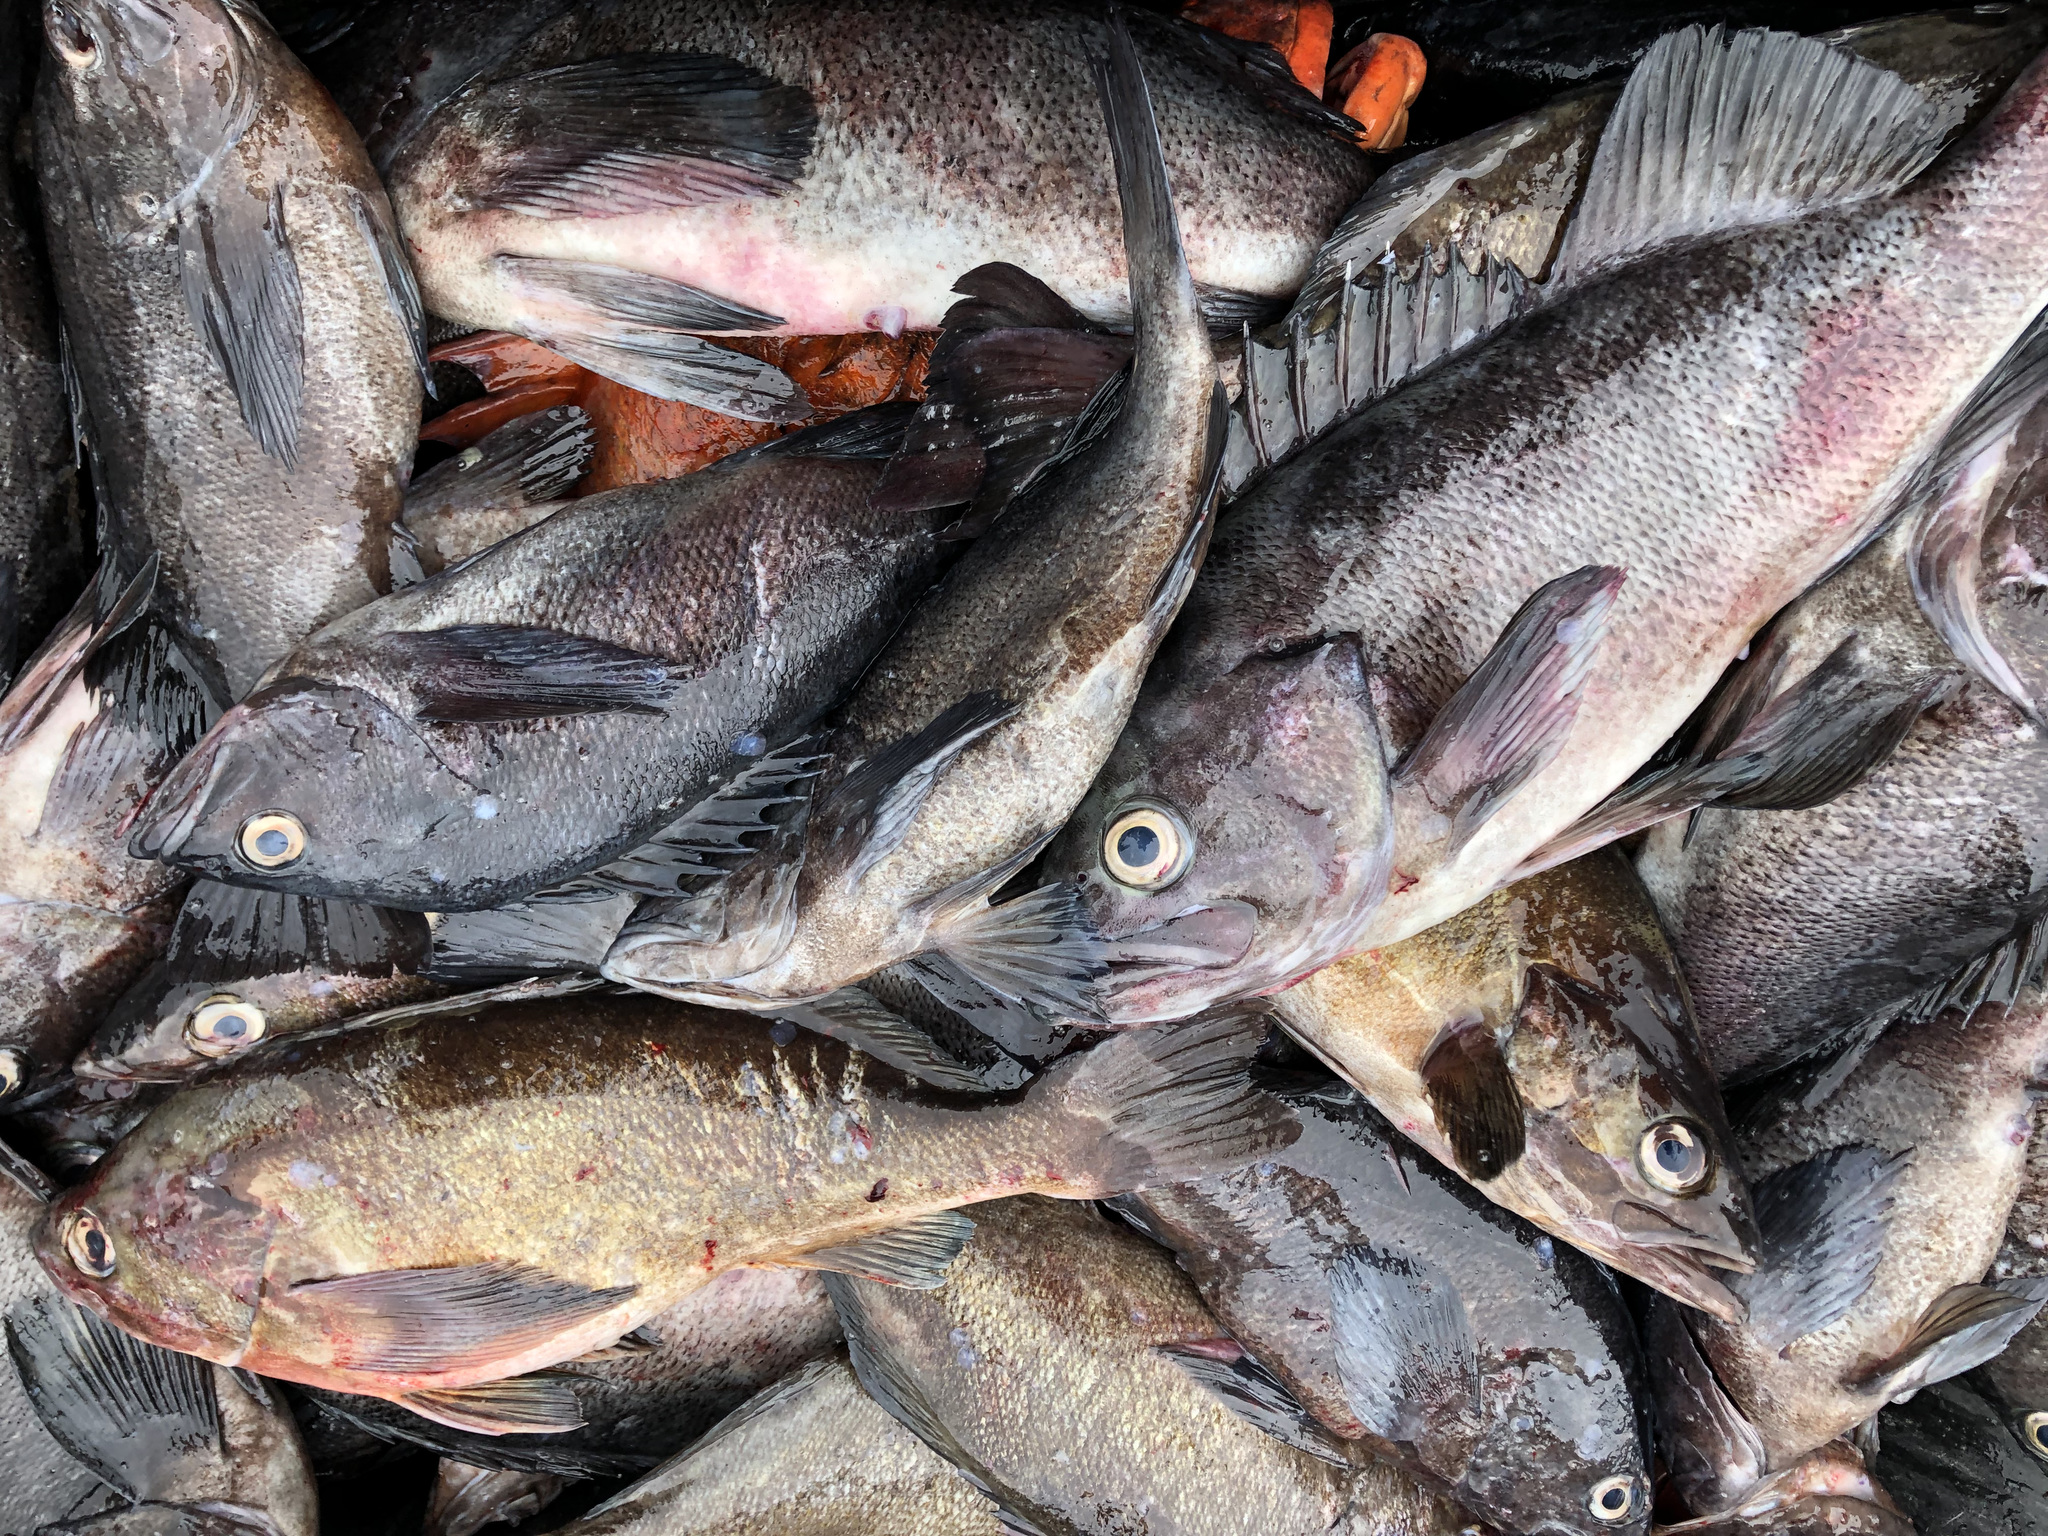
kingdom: Animalia
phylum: Chordata
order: Scorpaeniformes
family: Sebastidae
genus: Sebastes
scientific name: Sebastes entomelas
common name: Widow rockfish
